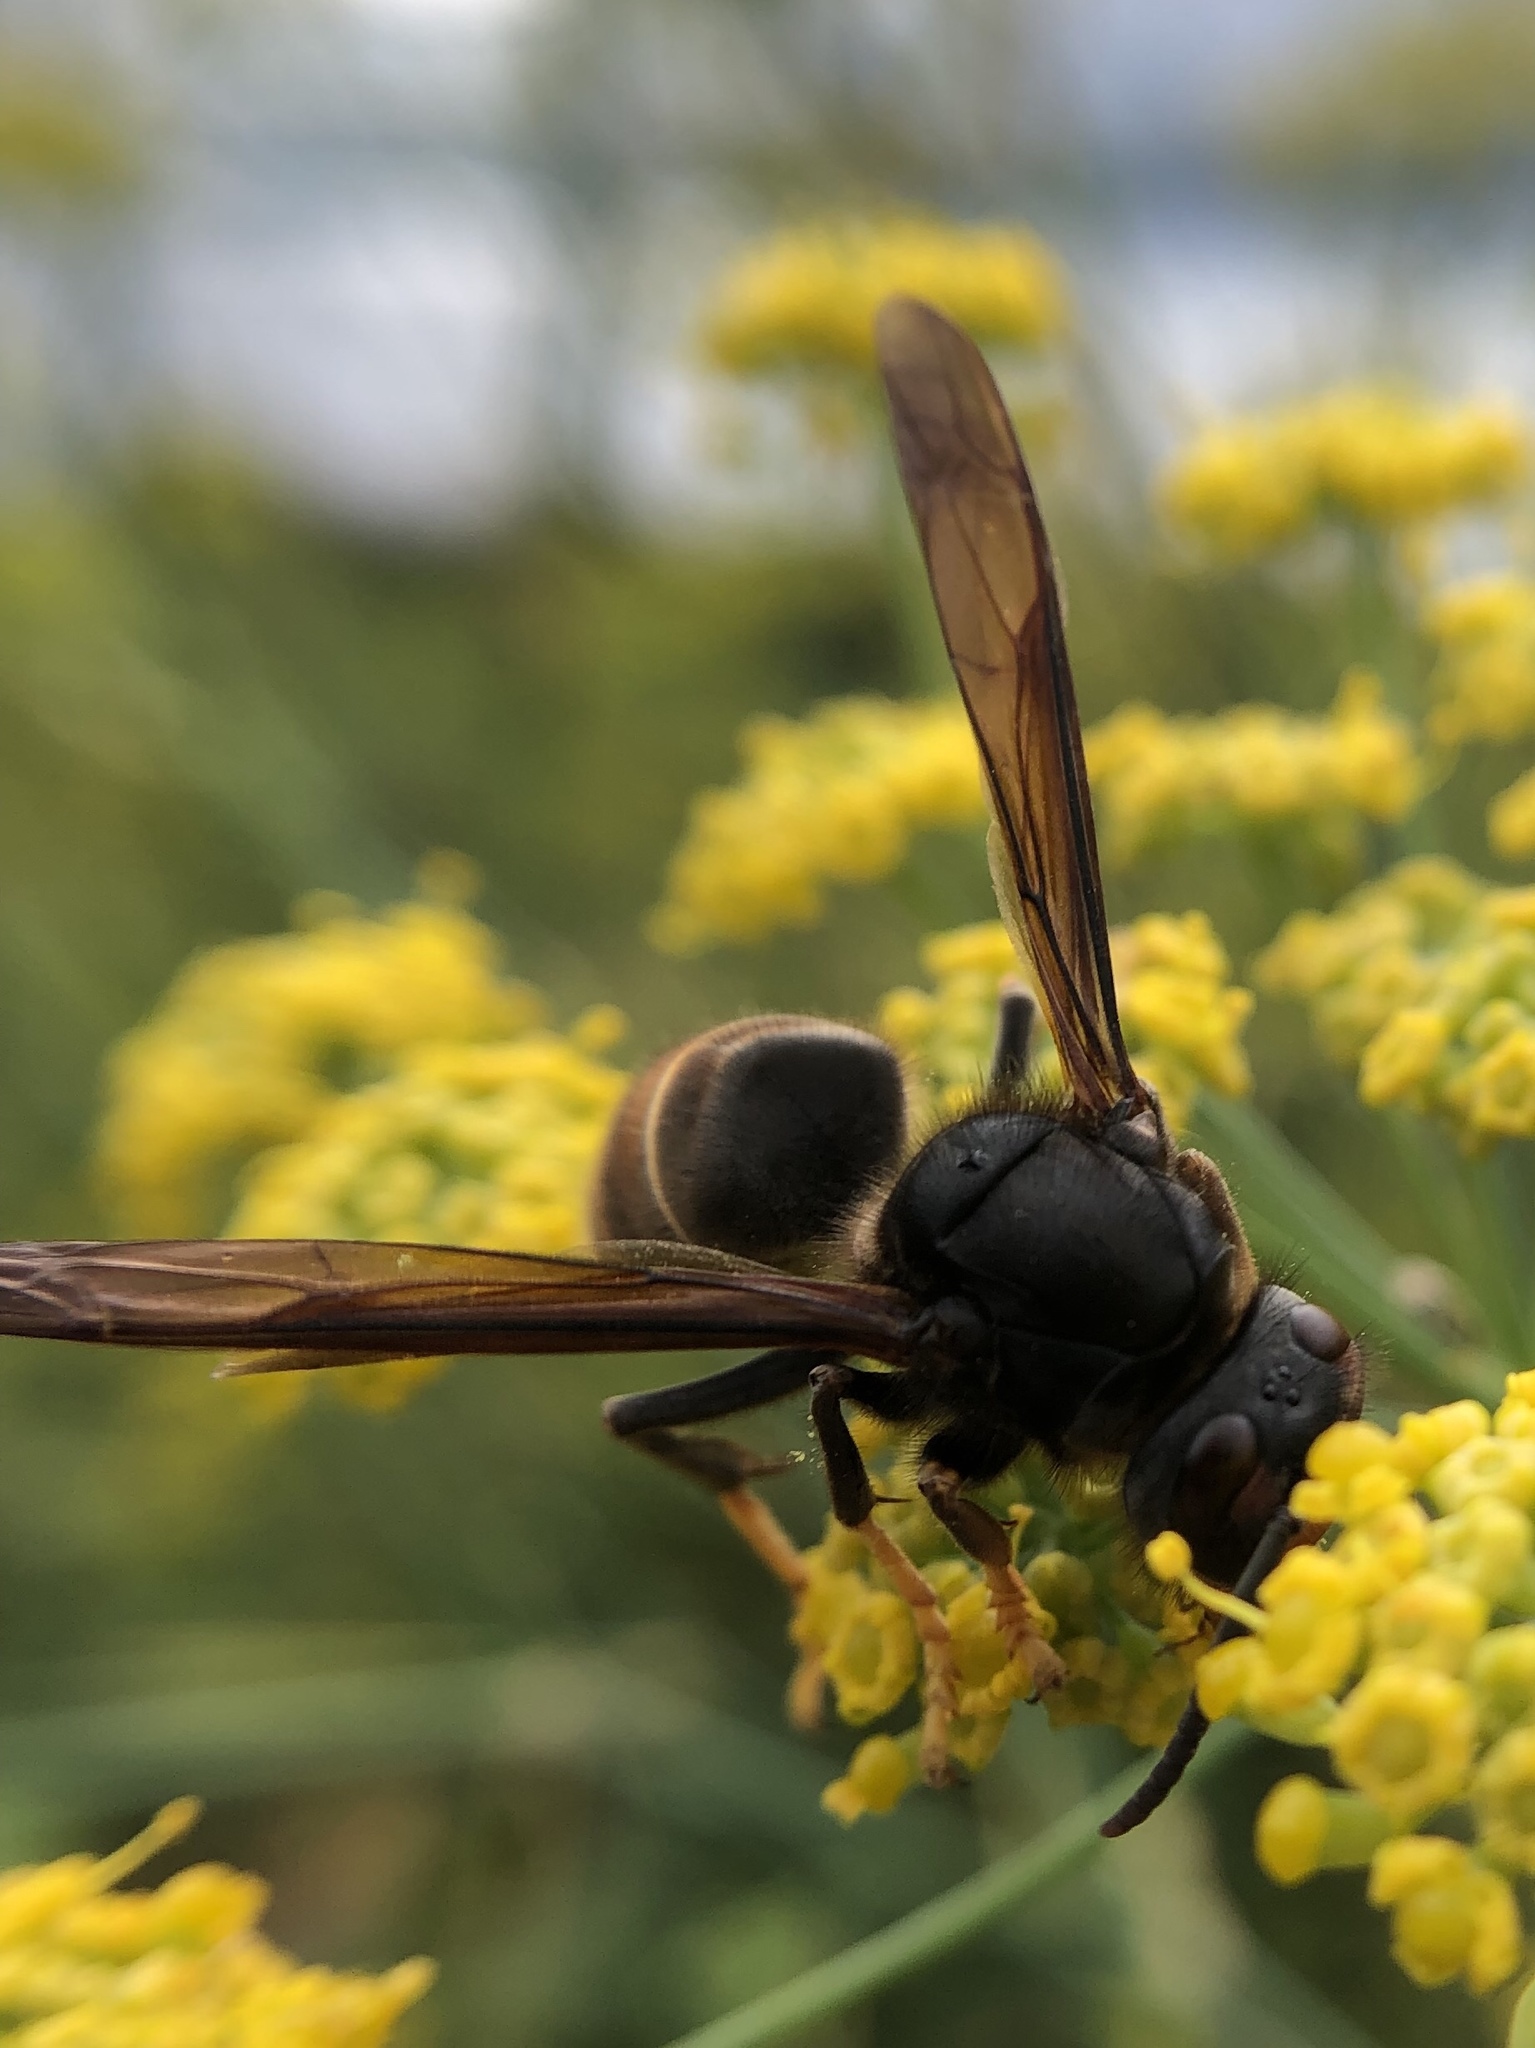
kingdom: Animalia
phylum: Arthropoda
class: Insecta
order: Hymenoptera
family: Vespidae
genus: Vespa
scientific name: Vespa velutina
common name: Asian hornet
